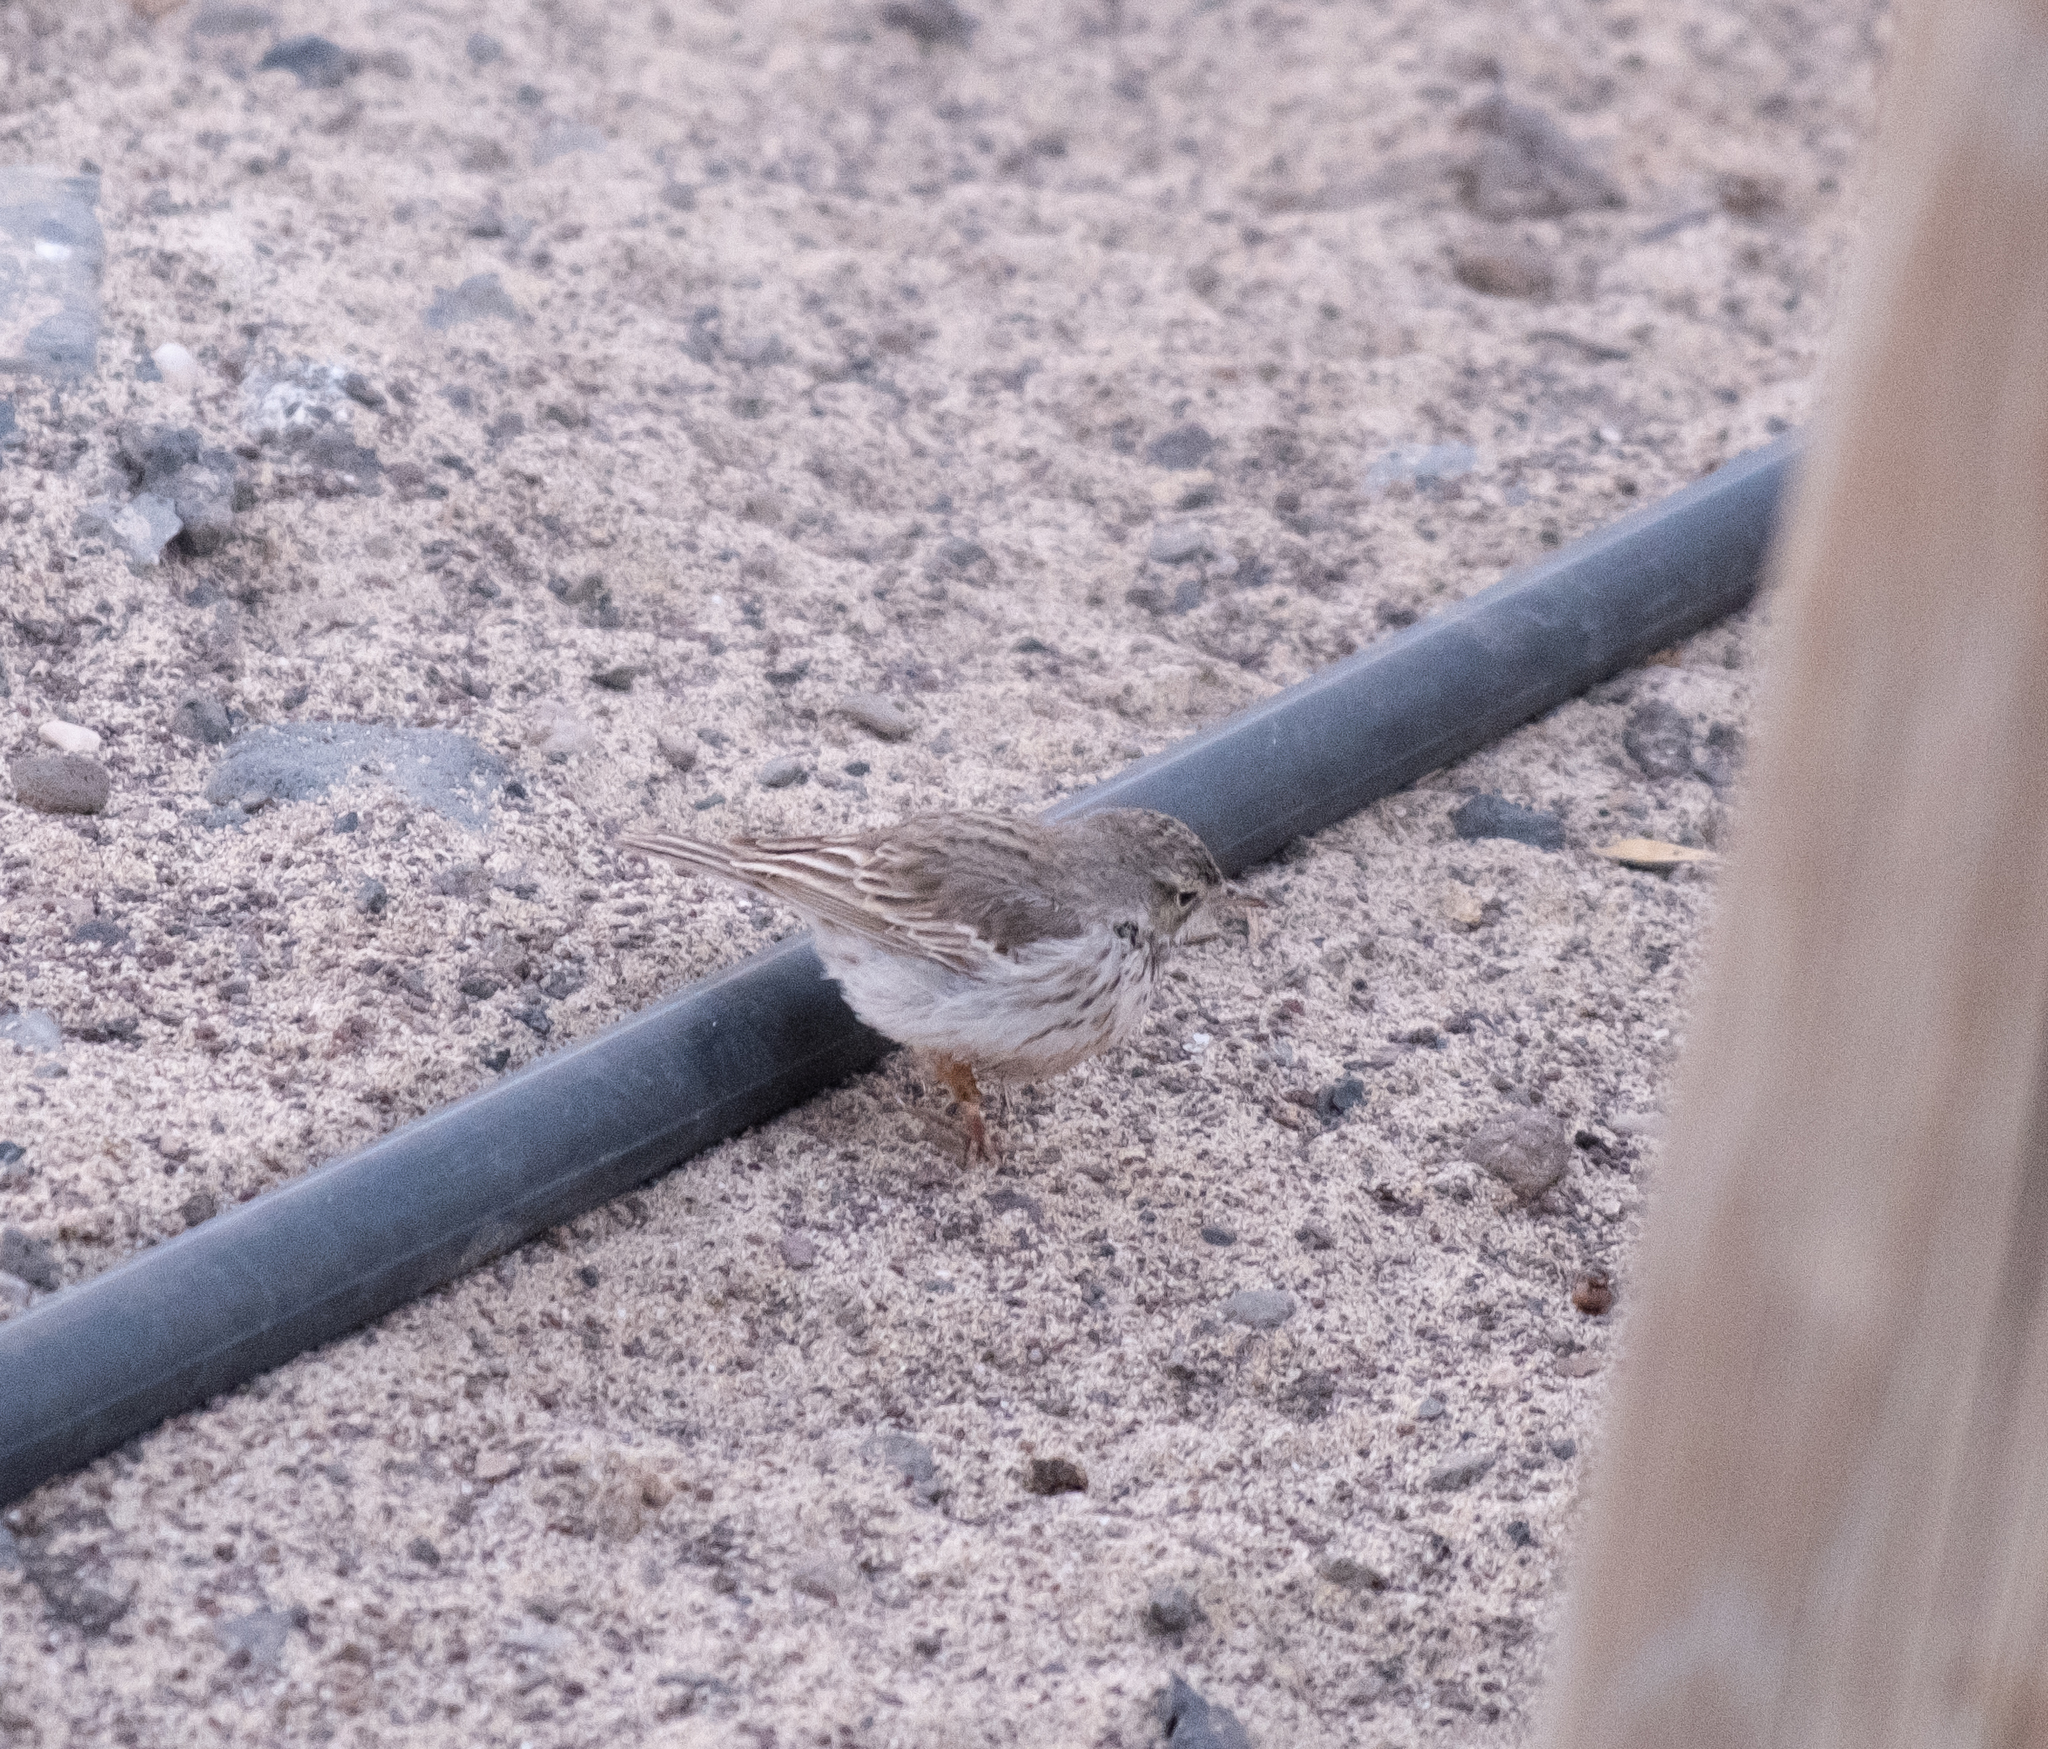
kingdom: Animalia
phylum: Chordata
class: Aves
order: Passeriformes
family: Motacillidae
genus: Anthus
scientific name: Anthus berthelotii
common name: Berthelot's pipit
